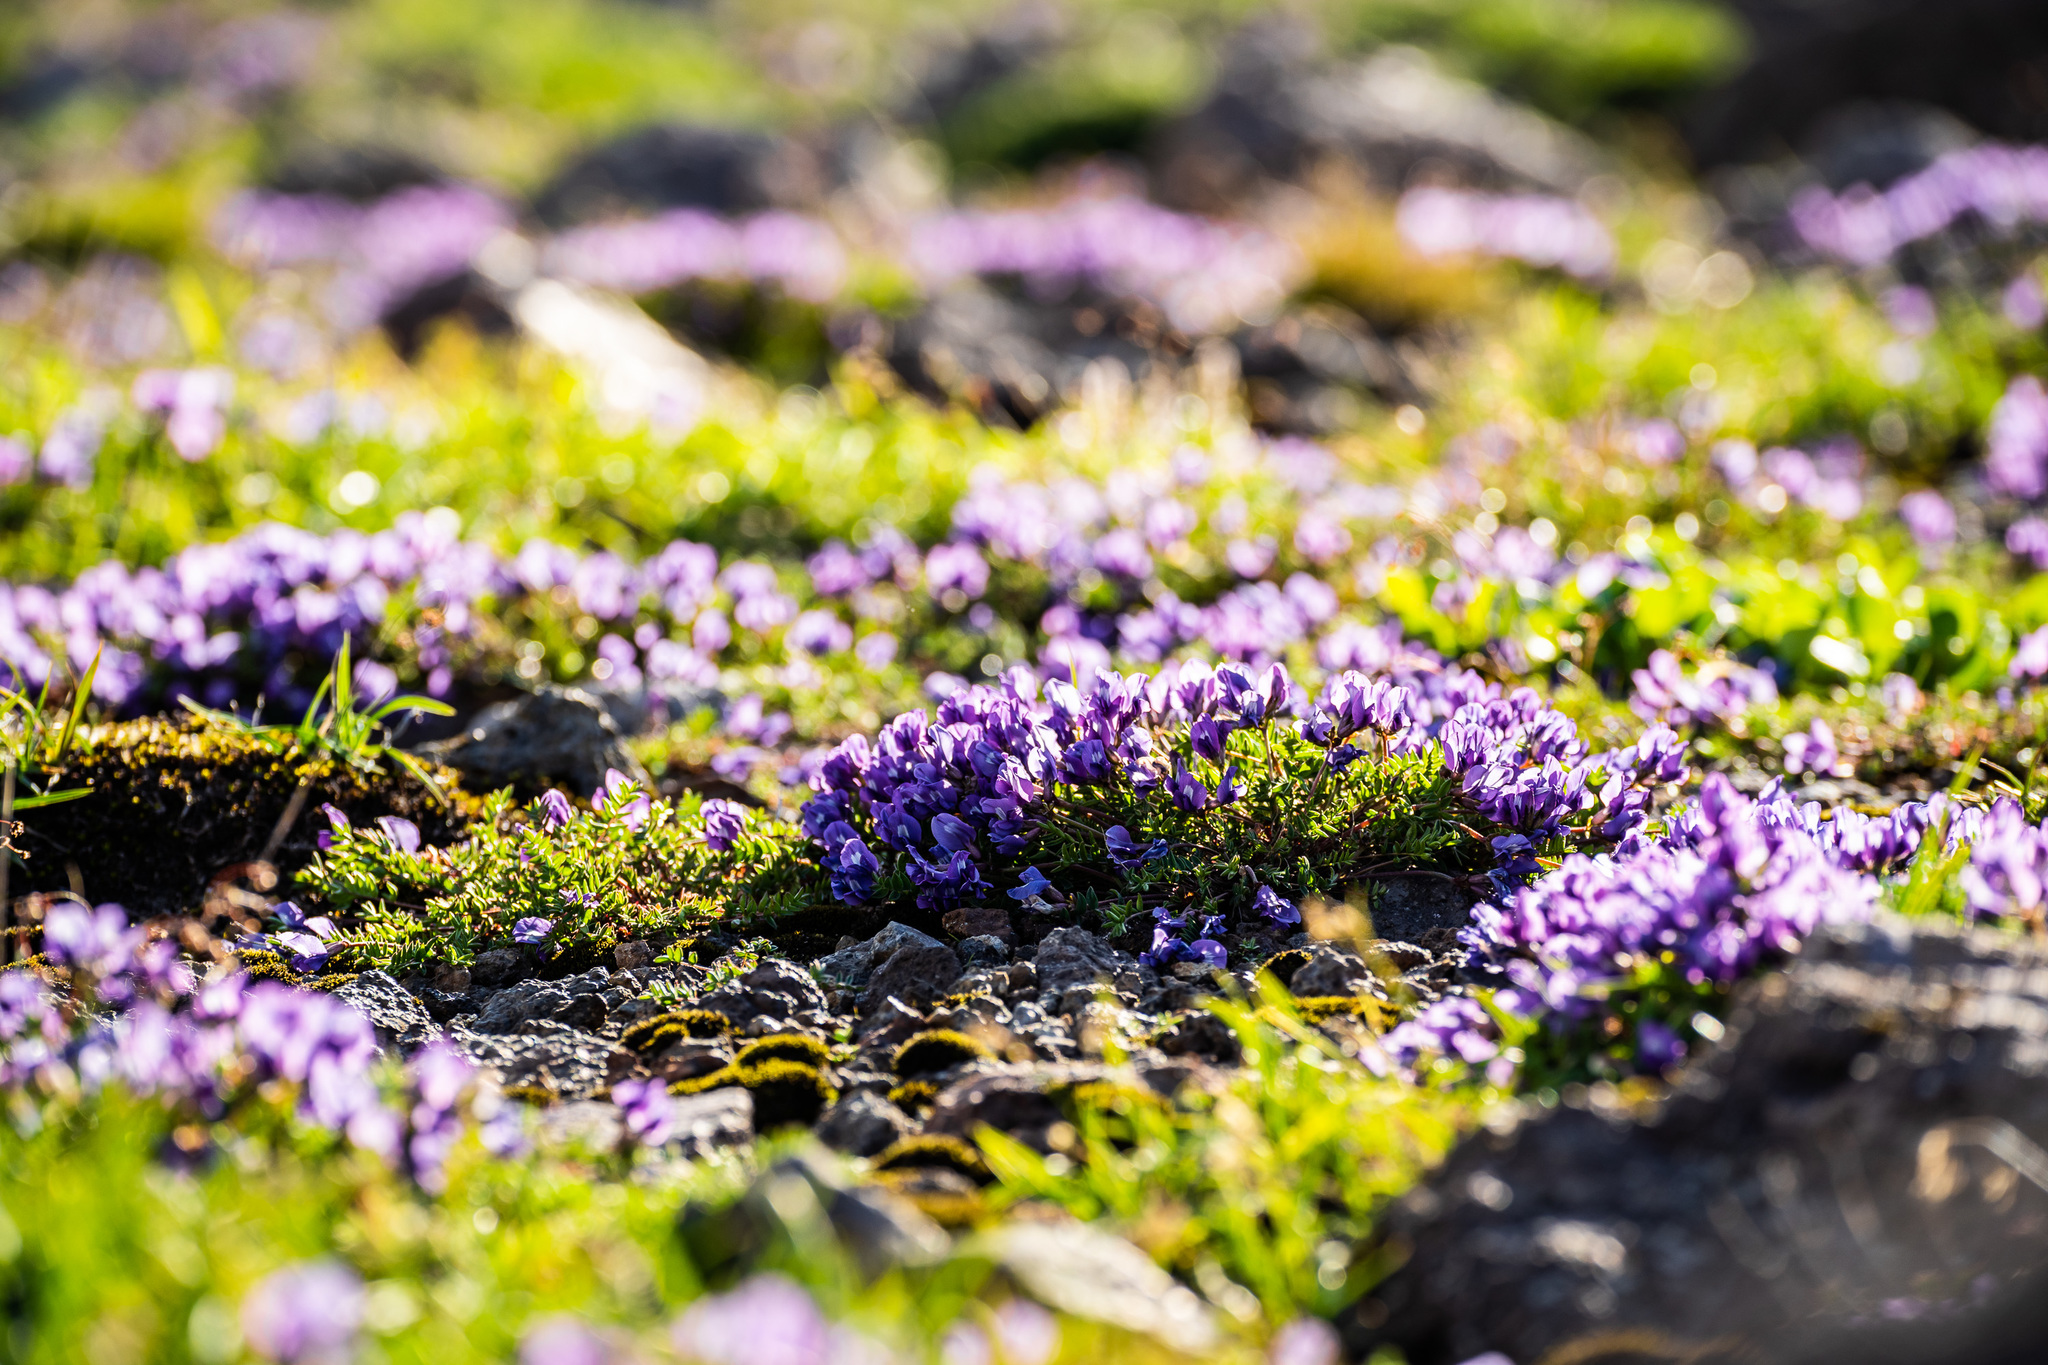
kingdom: Plantae
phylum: Tracheophyta
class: Magnoliopsida
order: Fabales
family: Fabaceae
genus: Oxytropis
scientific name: Oxytropis kamtschatica
